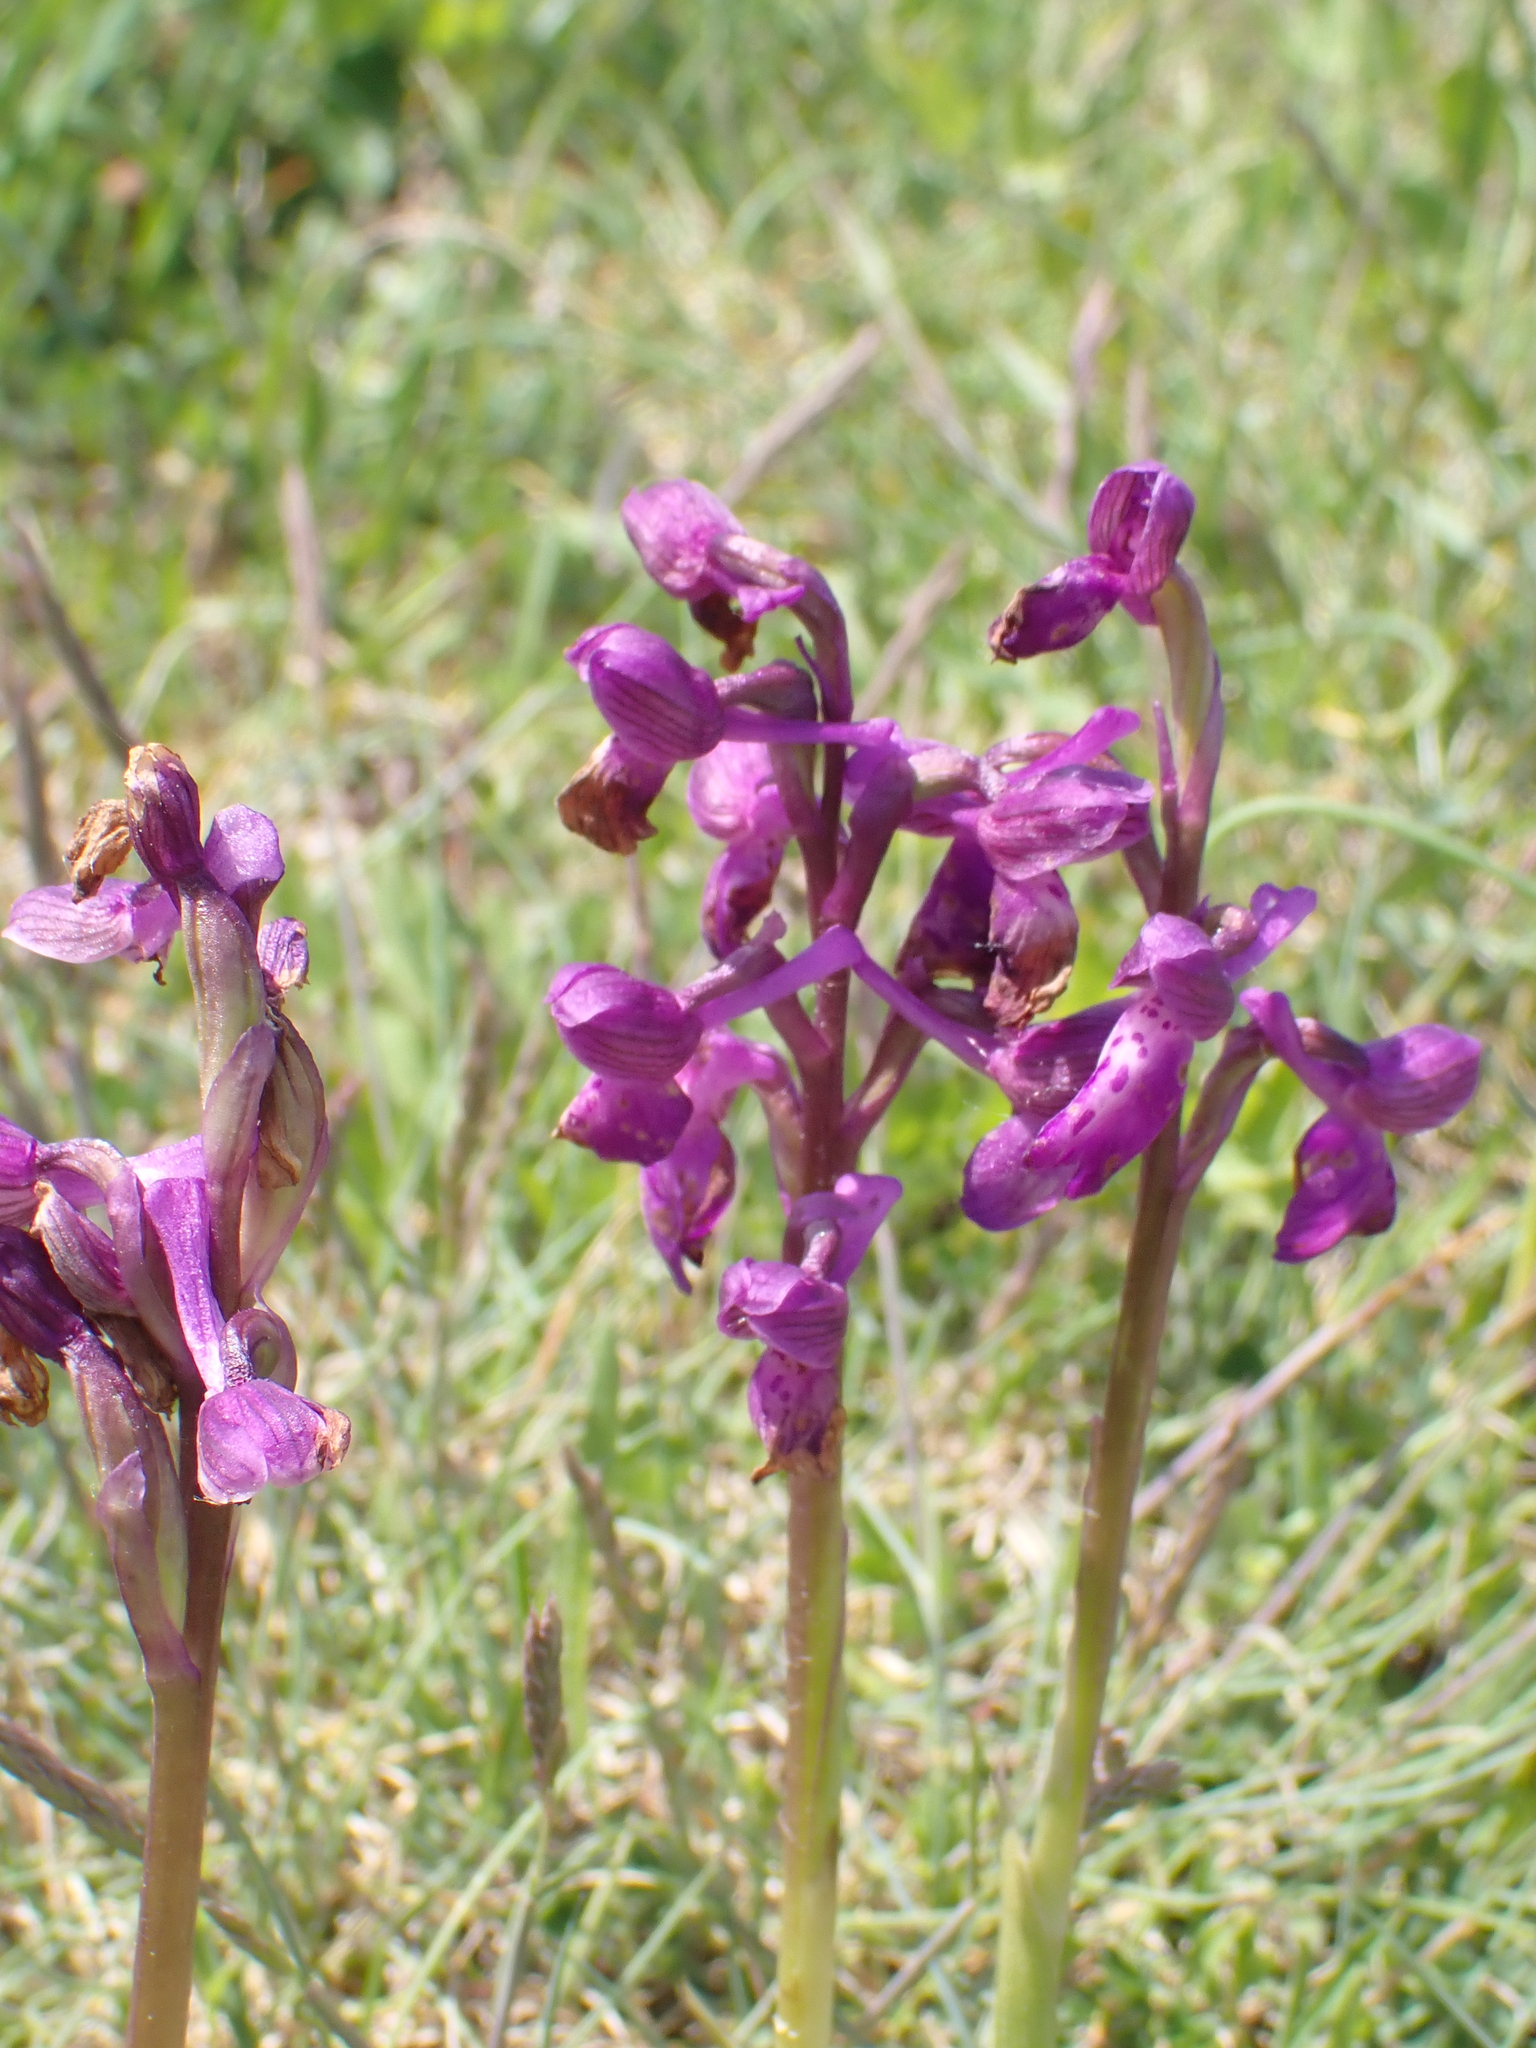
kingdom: Plantae
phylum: Tracheophyta
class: Liliopsida
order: Asparagales
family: Orchidaceae
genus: Anacamptis
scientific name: Anacamptis morio
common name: Green-winged orchid
